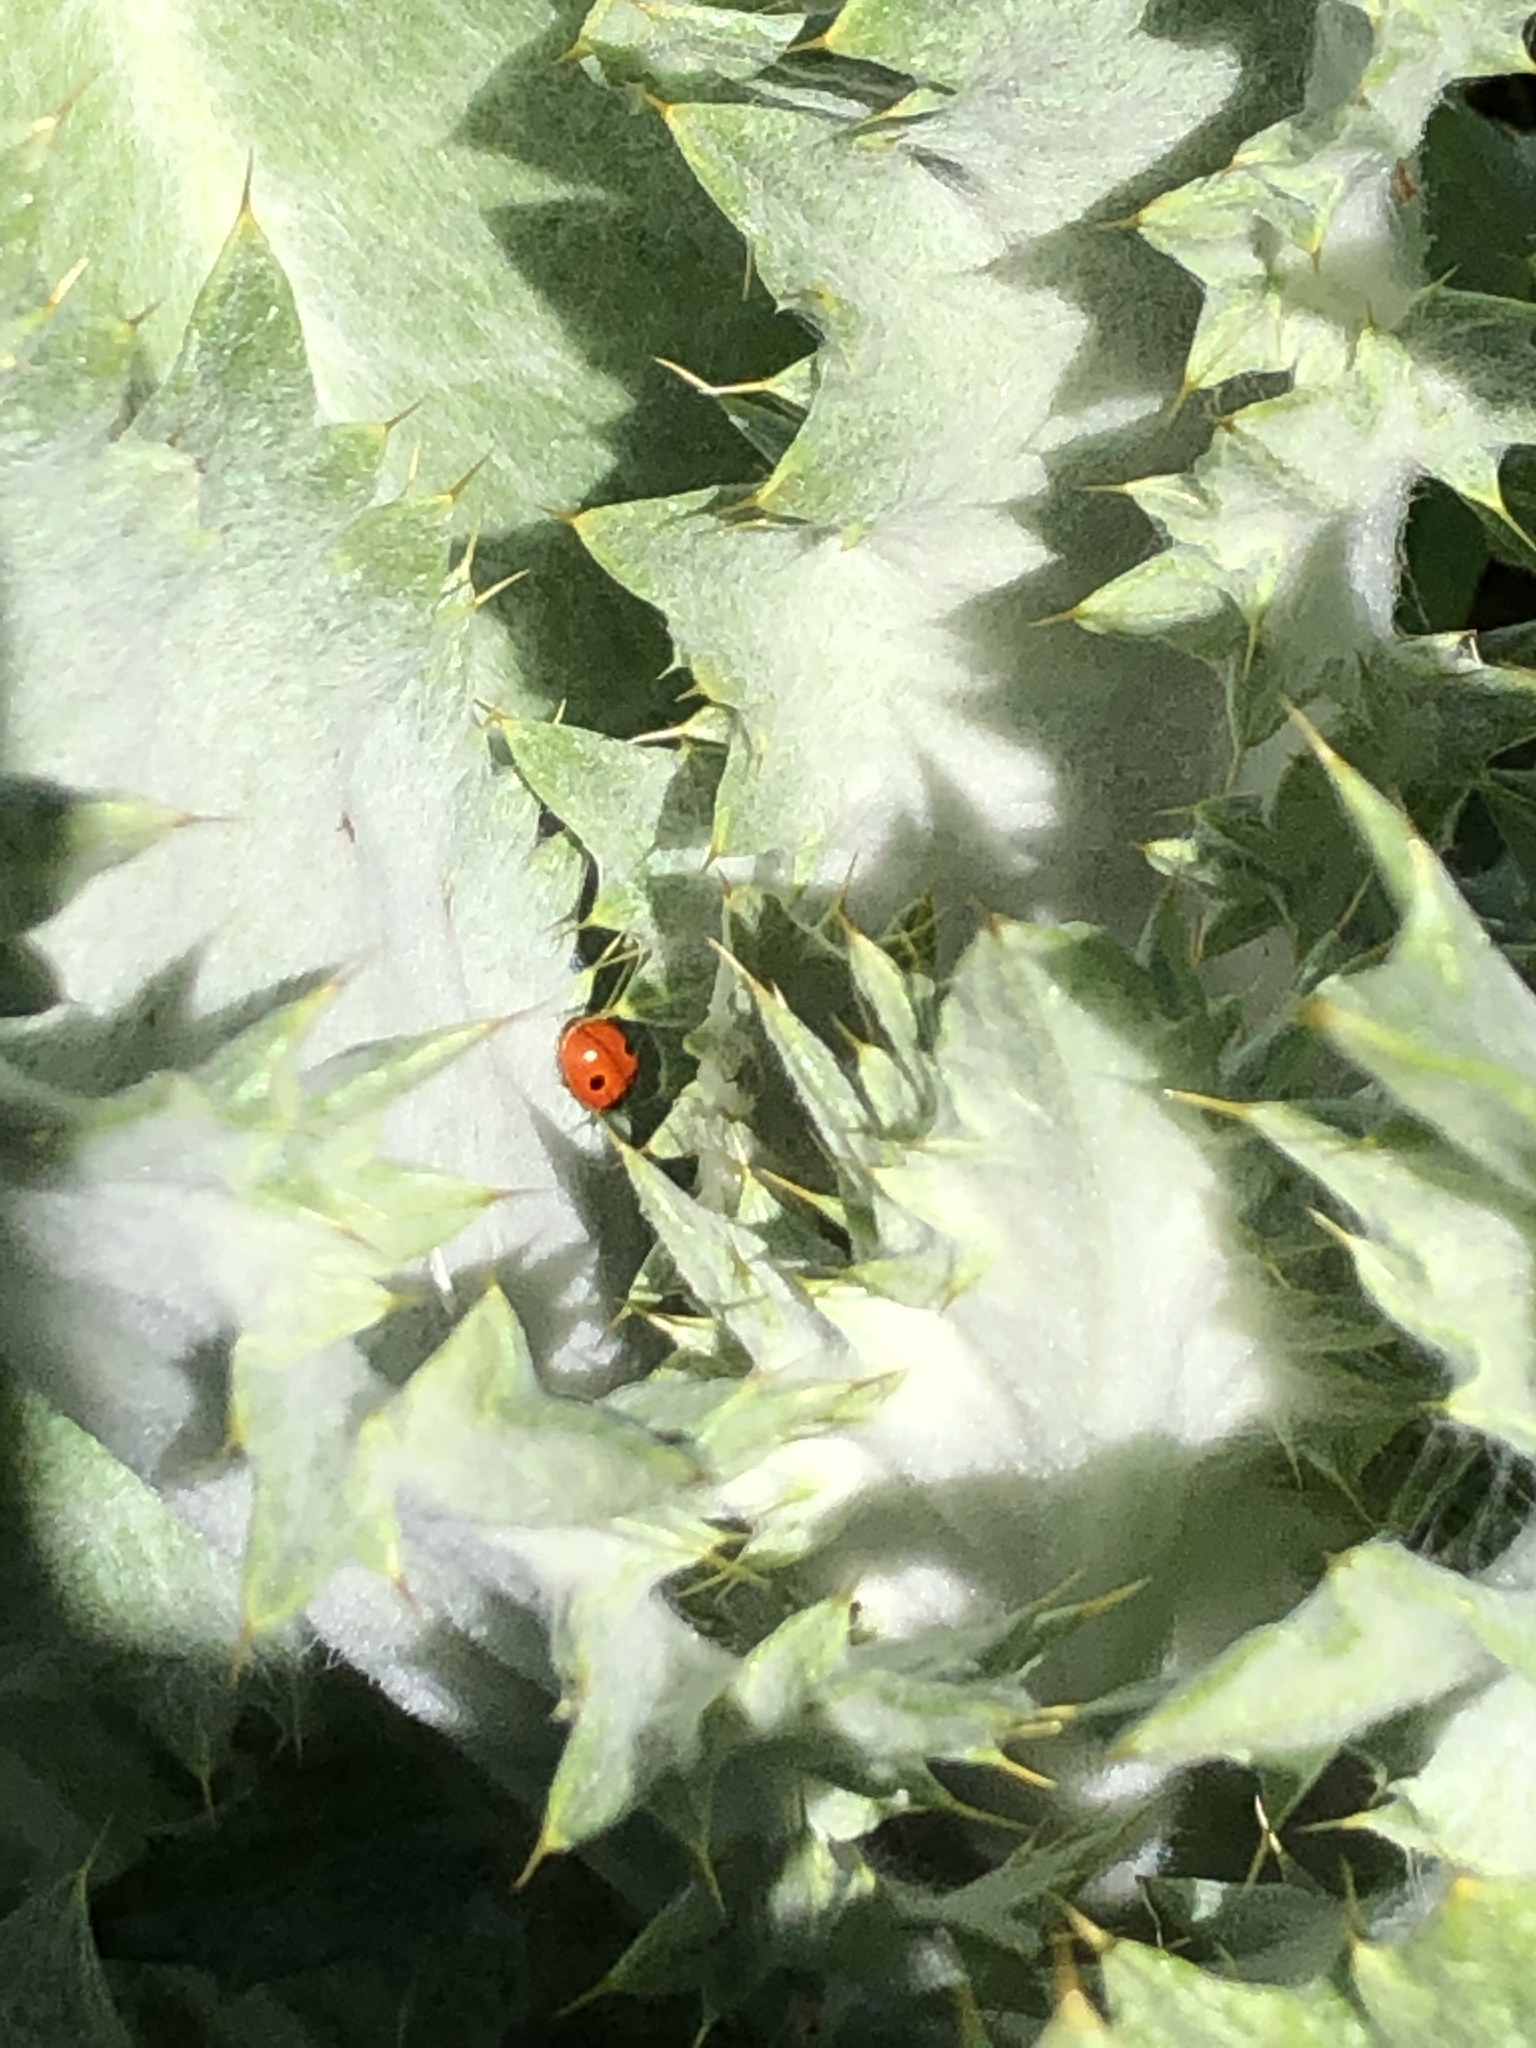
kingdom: Animalia
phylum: Arthropoda
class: Insecta
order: Coleoptera
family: Coccinellidae
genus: Adalia
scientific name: Adalia bipunctata
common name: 2-spot ladybird
